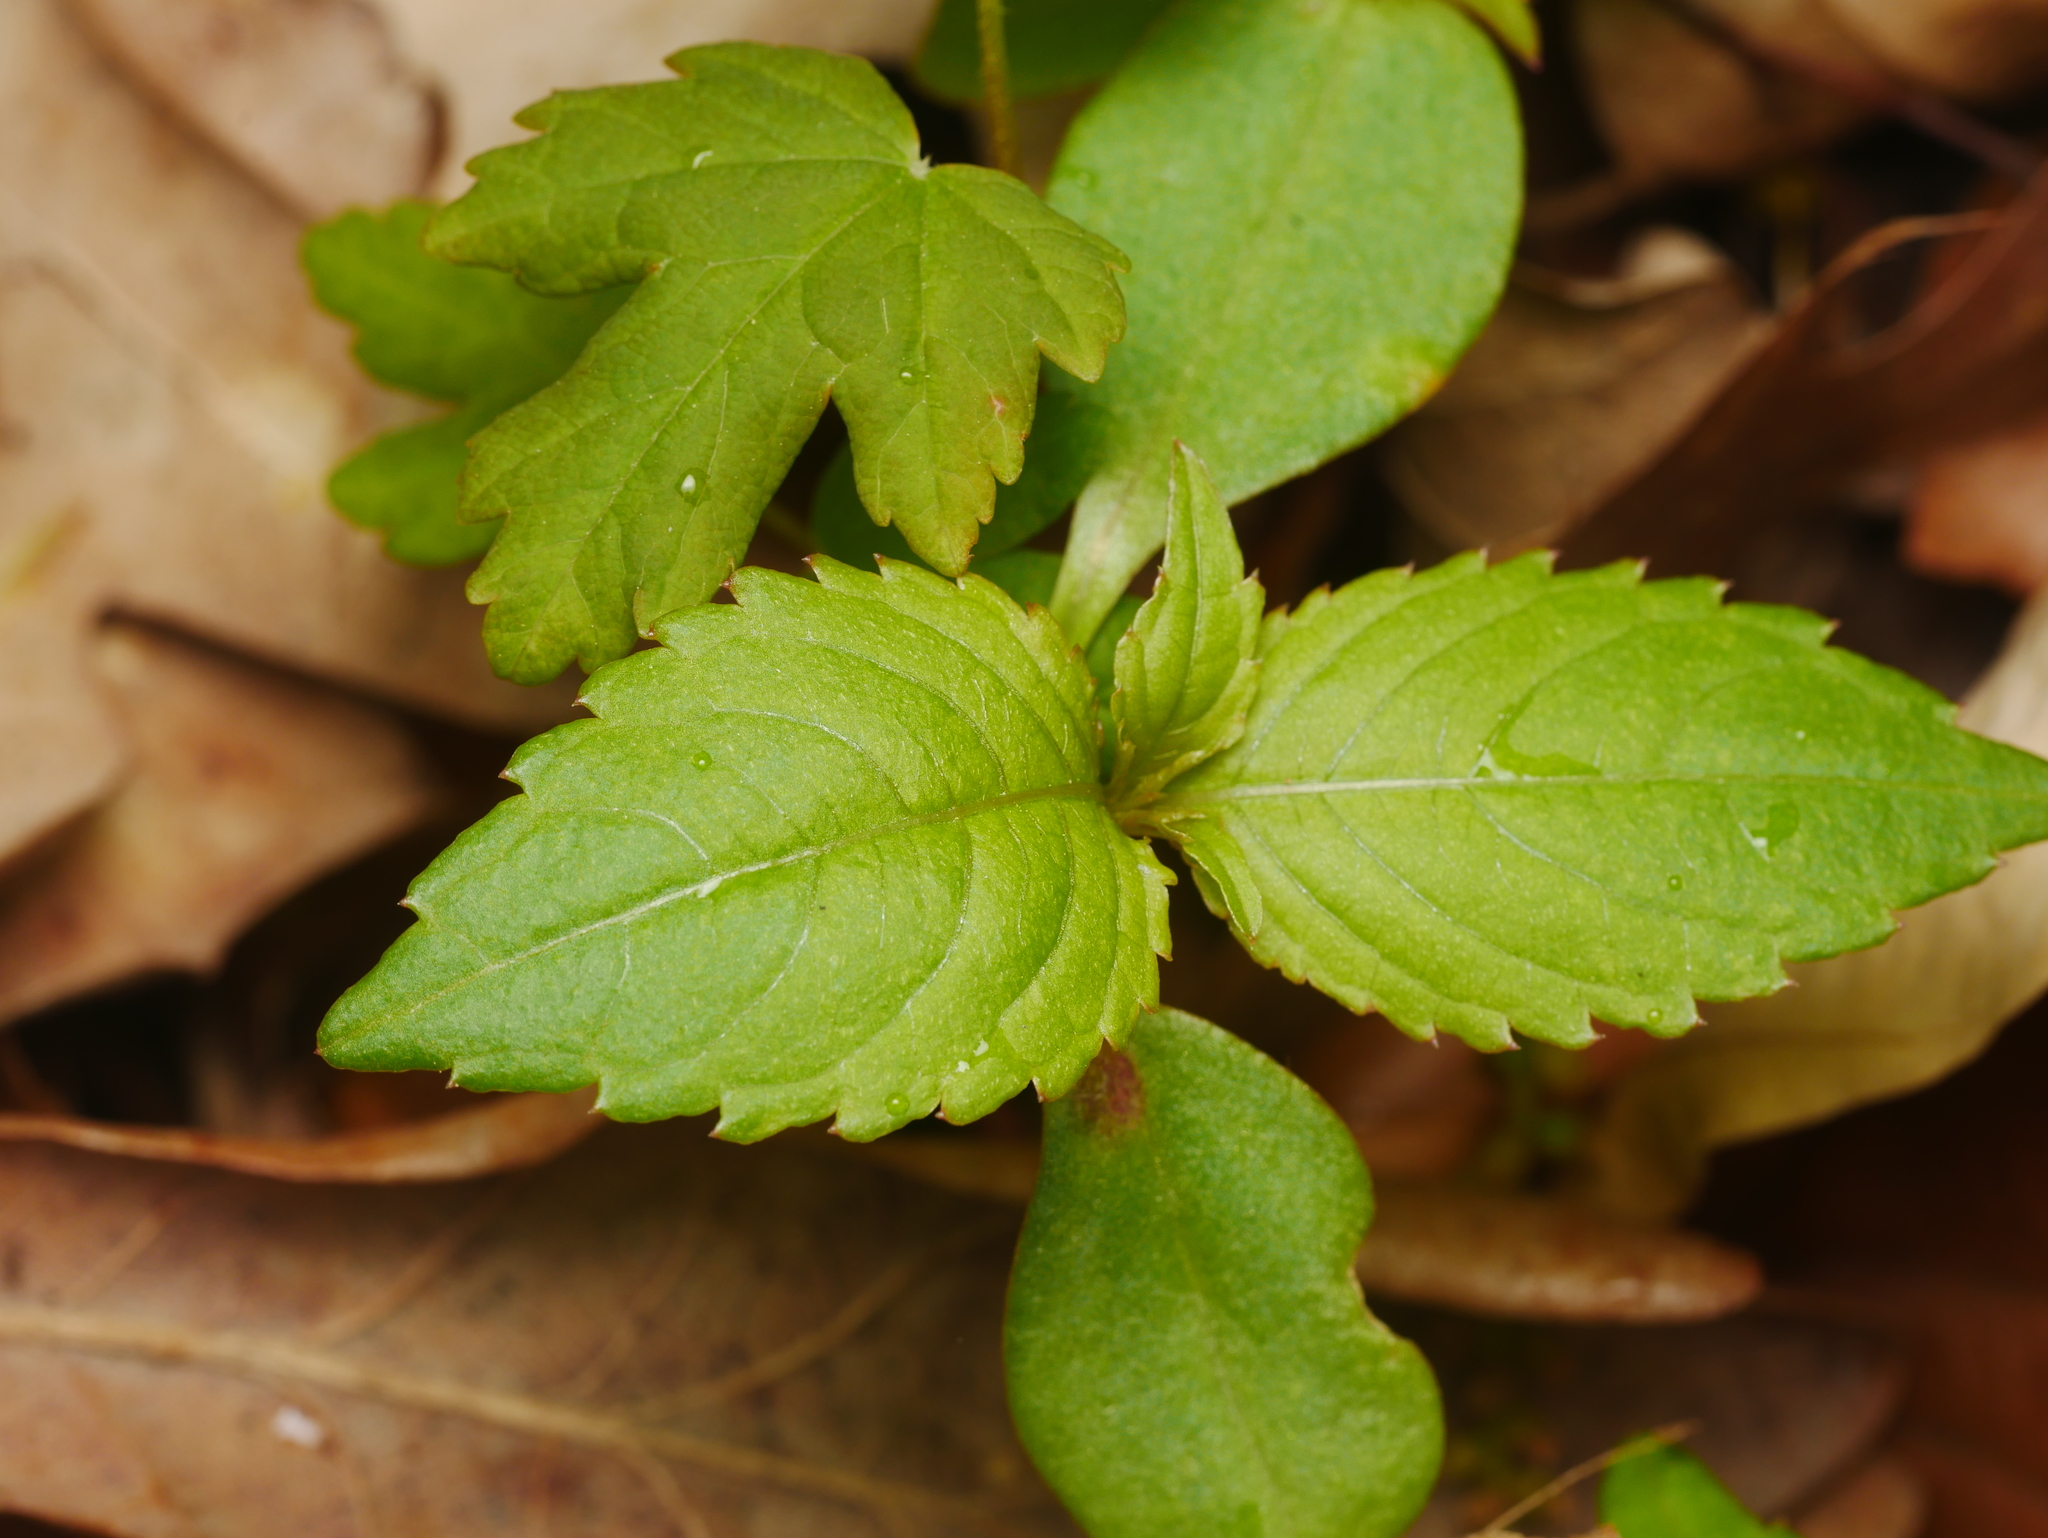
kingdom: Plantae
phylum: Tracheophyta
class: Magnoliopsida
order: Ericales
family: Balsaminaceae
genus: Impatiens
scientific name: Impatiens parviflora
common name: Small balsam
